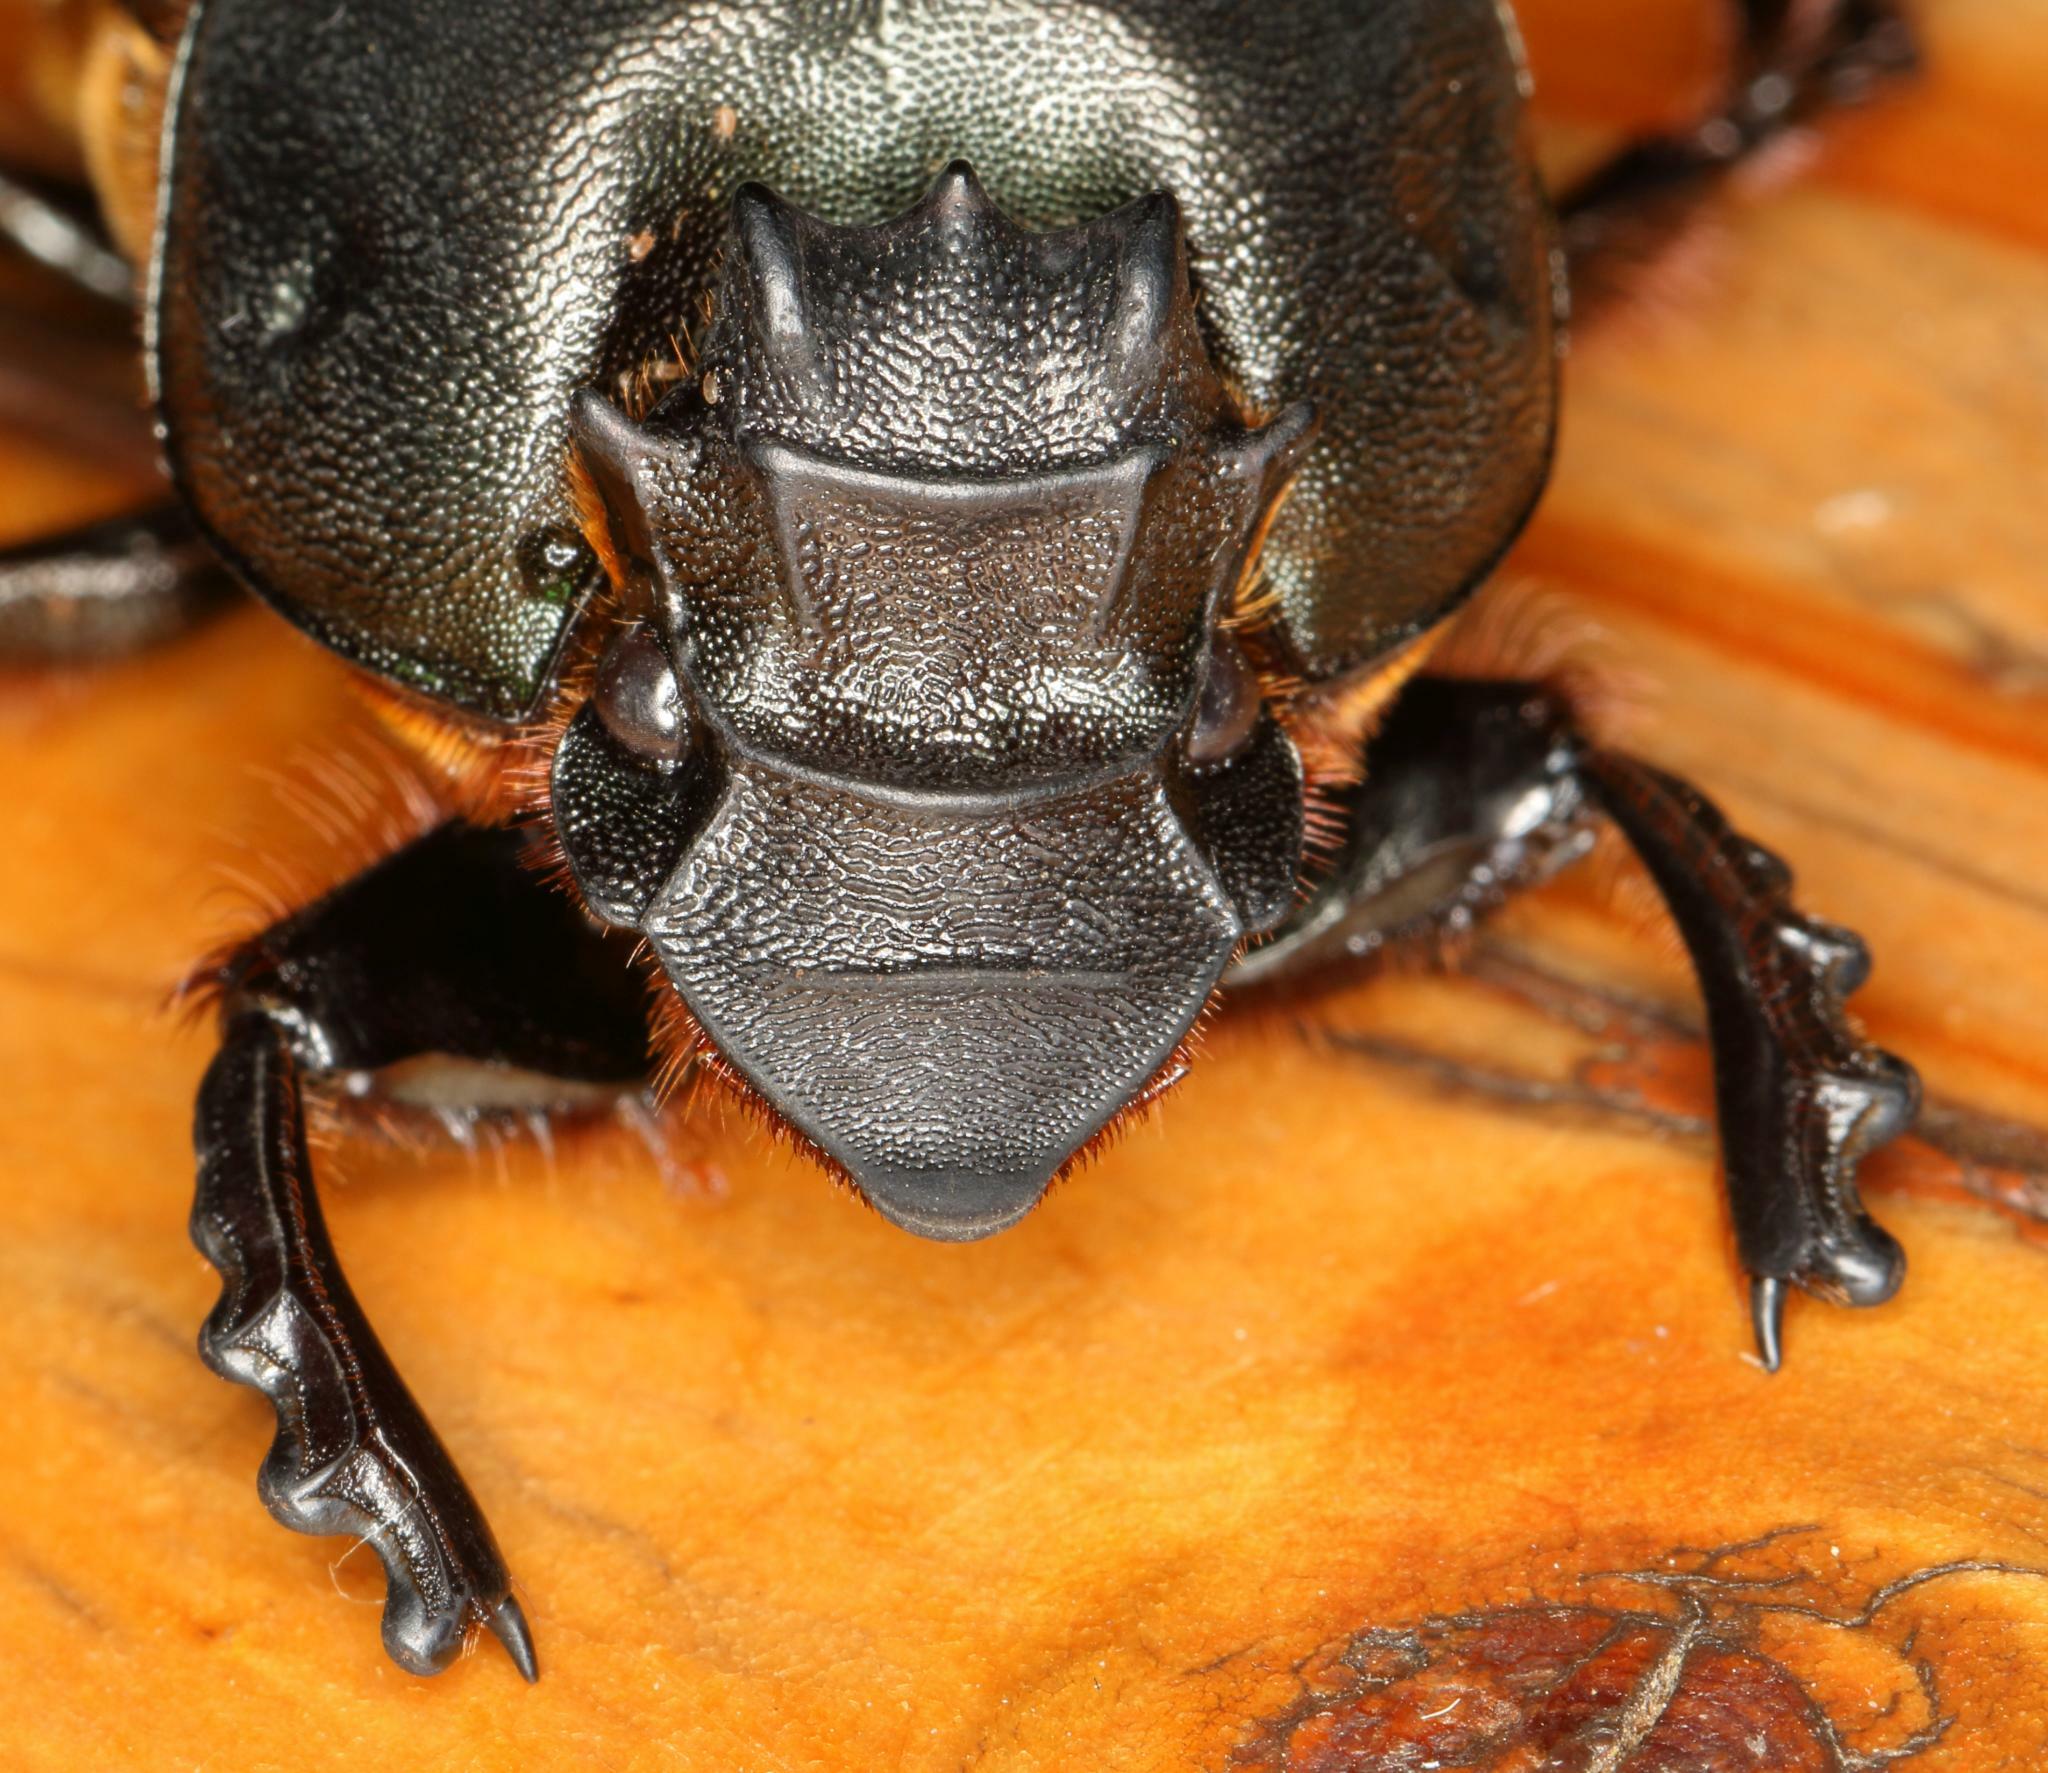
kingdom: Animalia
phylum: Arthropoda
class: Insecta
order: Coleoptera
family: Scarabaeidae
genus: Heteronitis
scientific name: Heteronitis castelnaui
